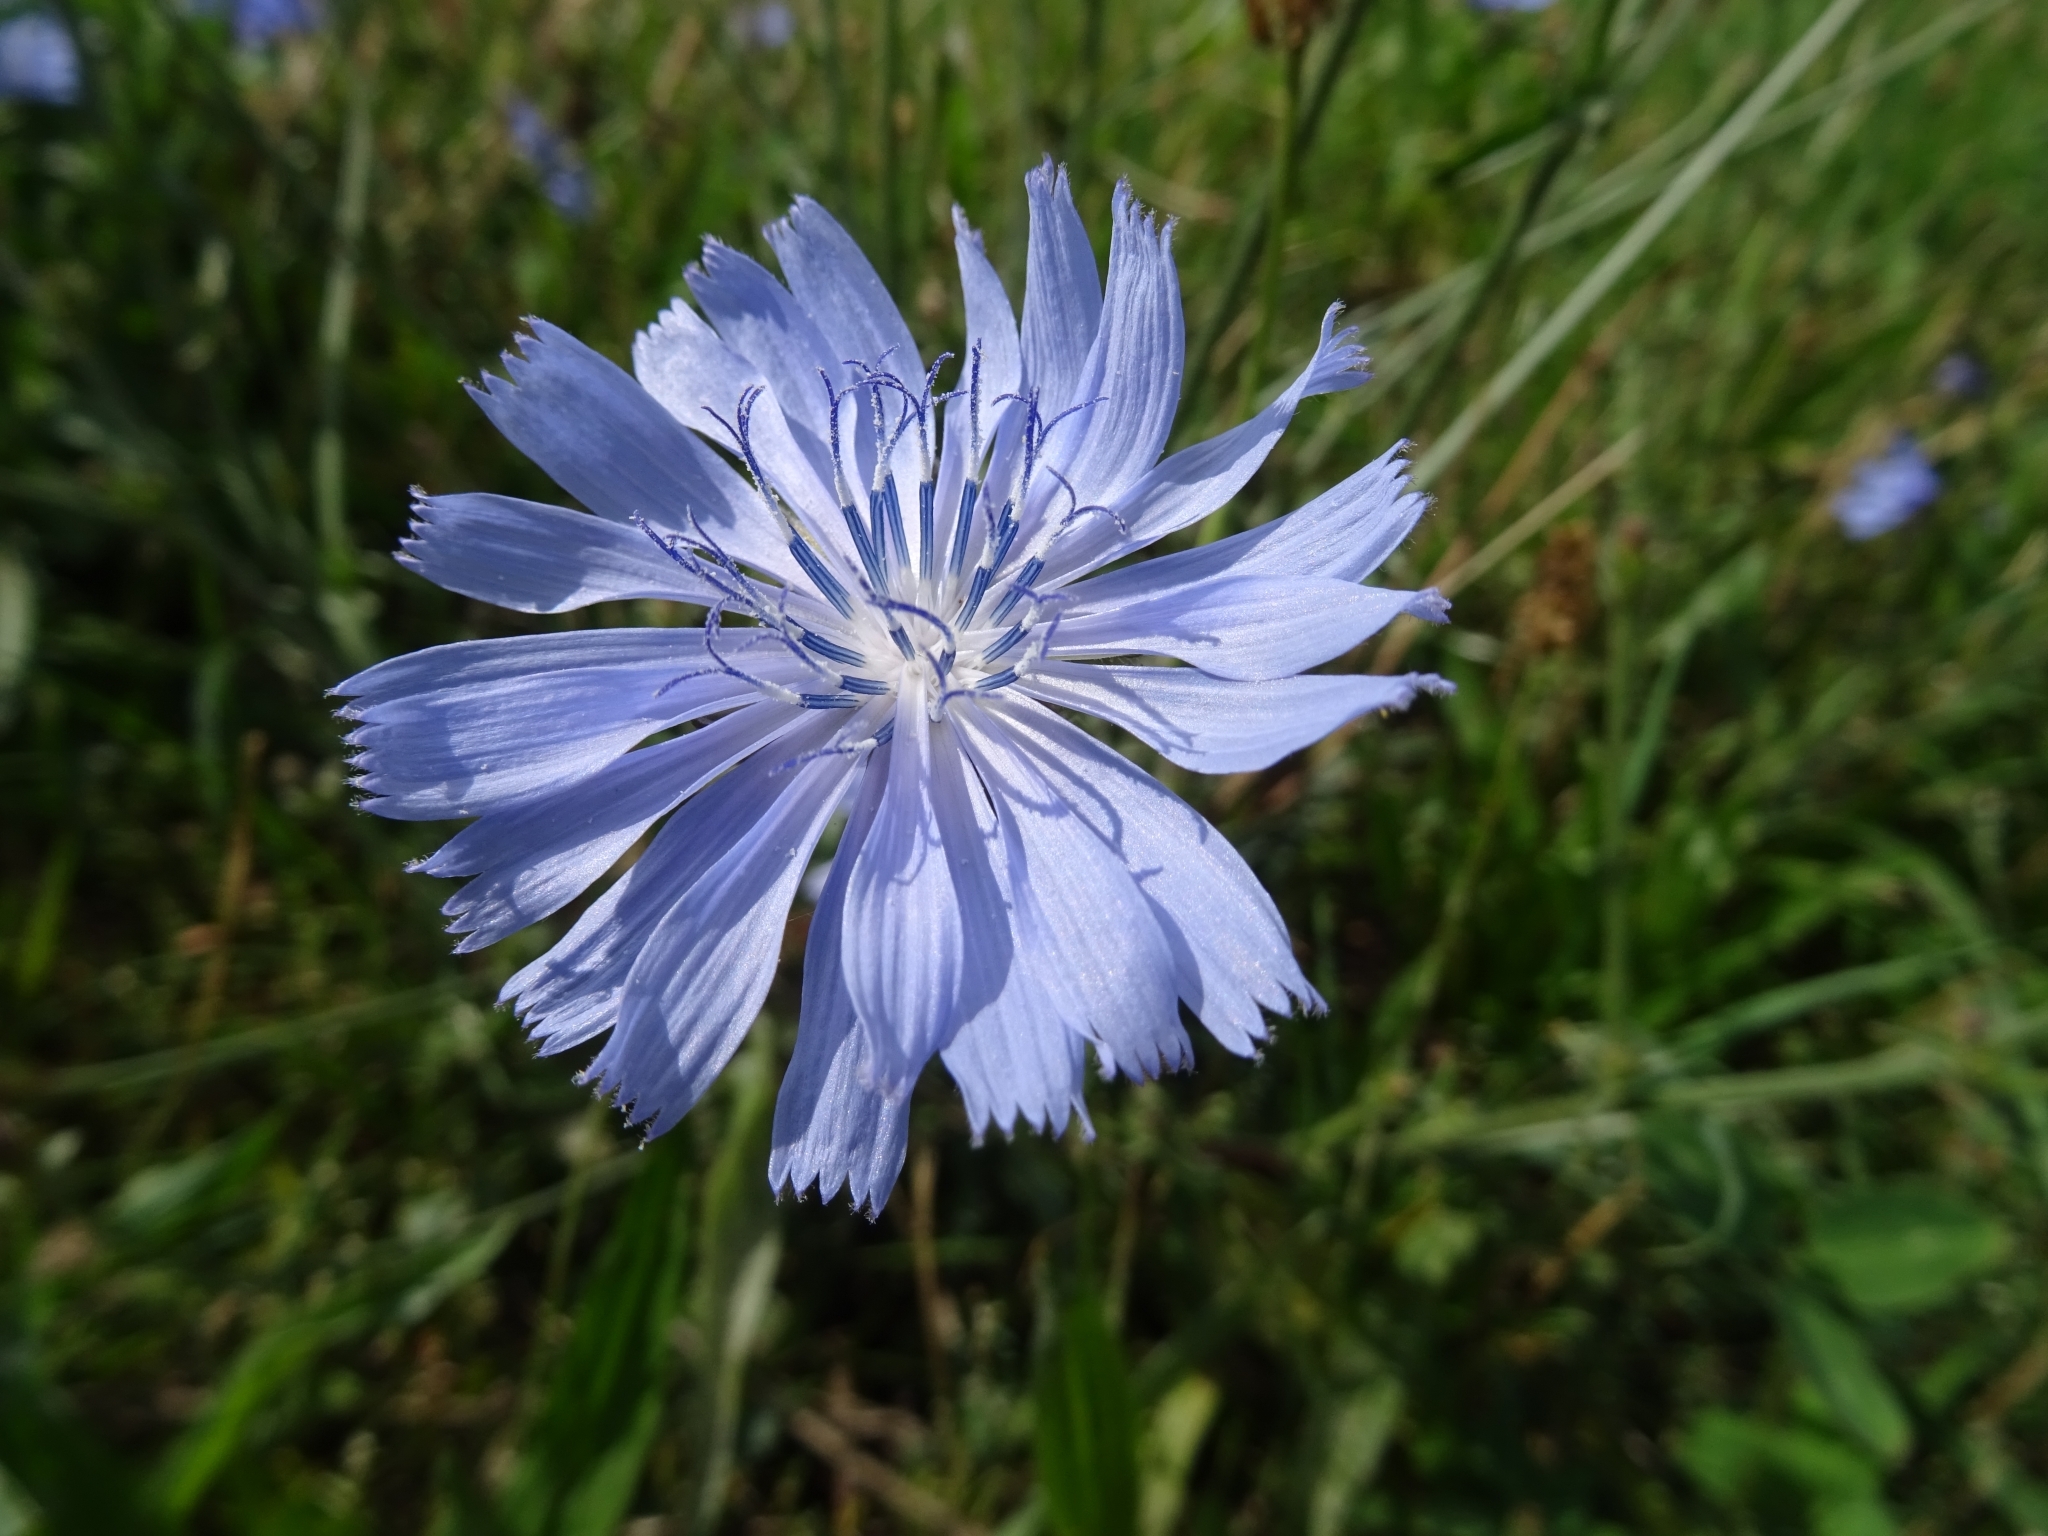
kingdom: Plantae
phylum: Tracheophyta
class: Magnoliopsida
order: Asterales
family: Asteraceae
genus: Cichorium
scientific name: Cichorium intybus
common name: Chicory
